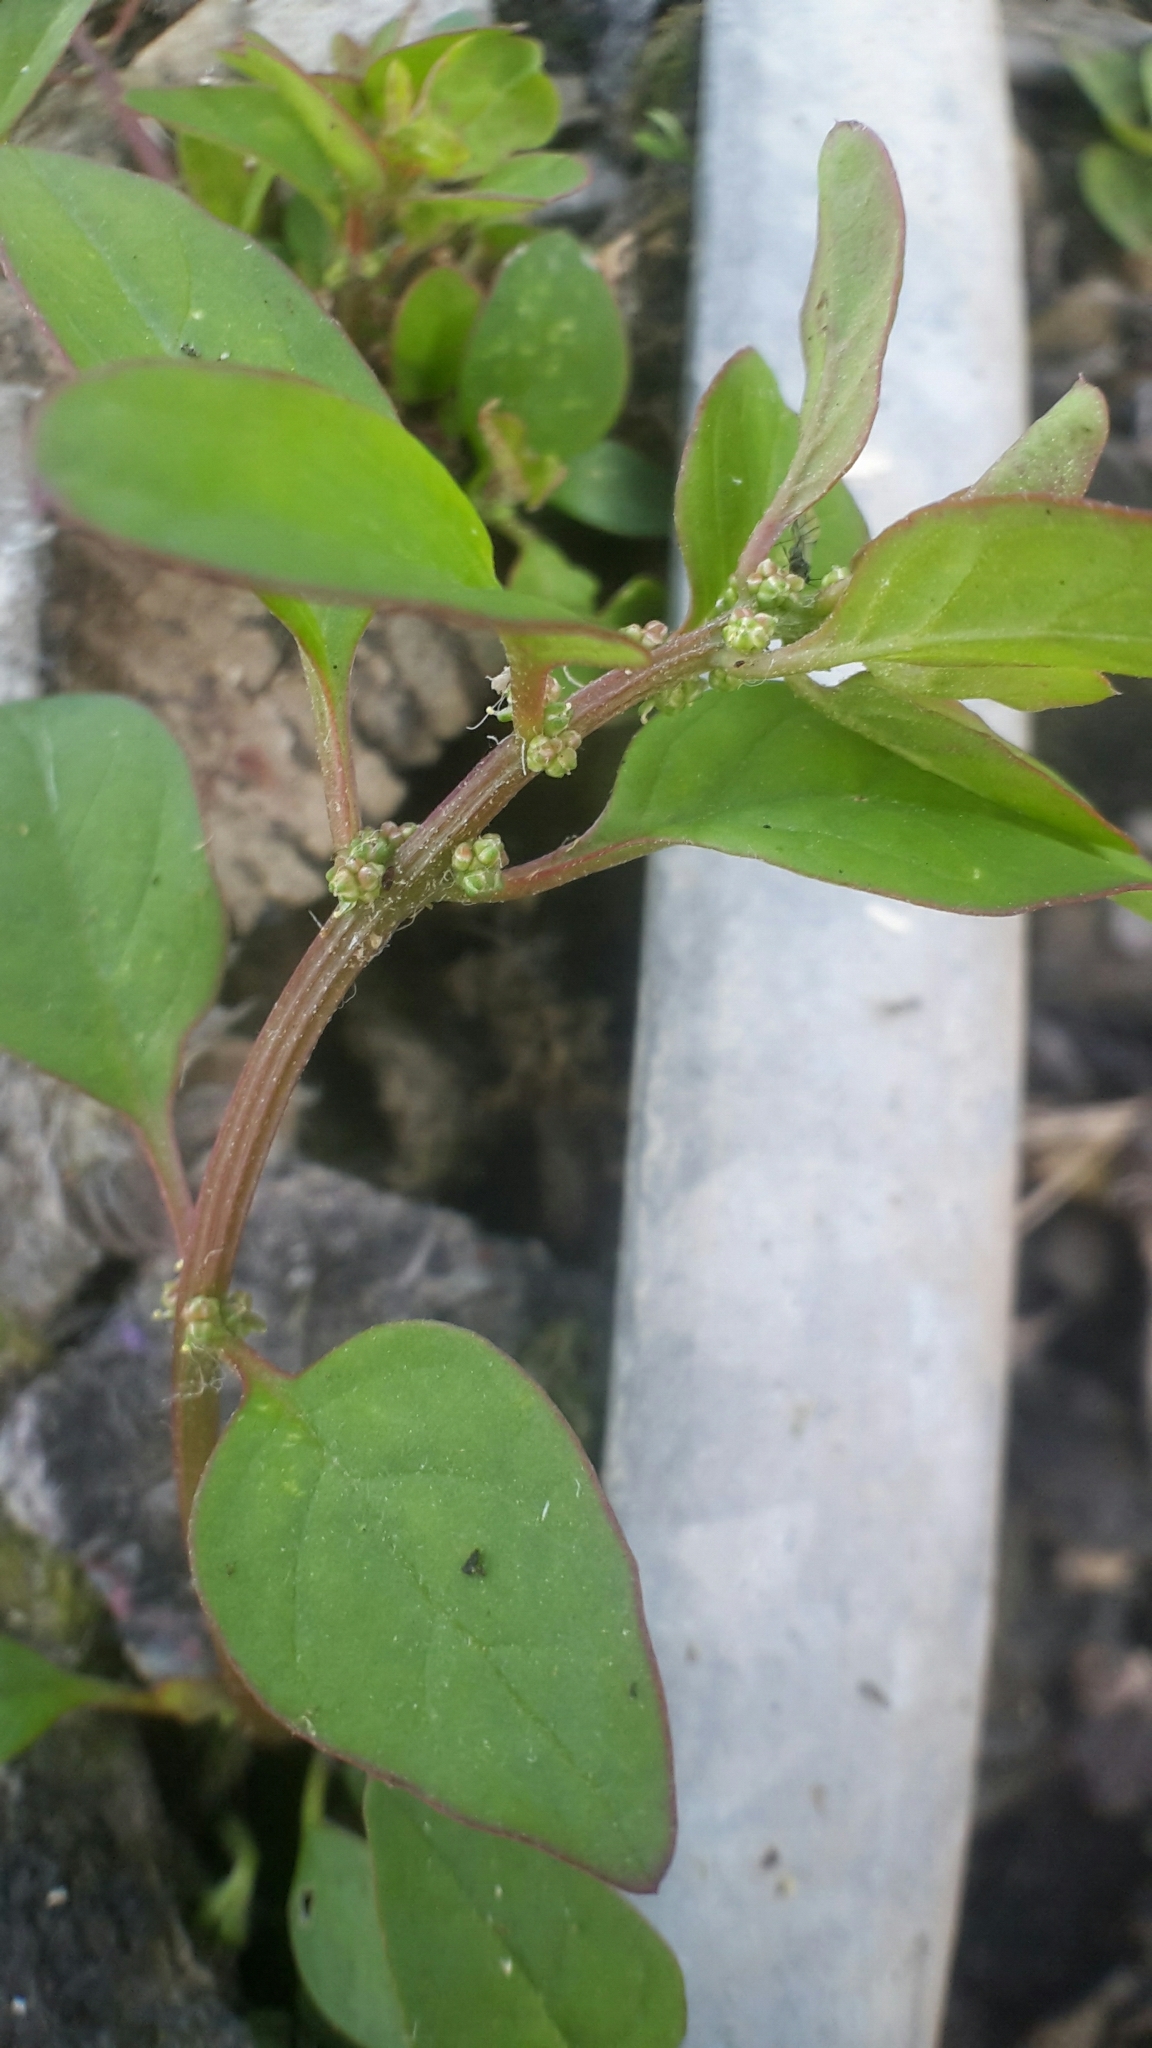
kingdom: Plantae
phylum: Tracheophyta
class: Magnoliopsida
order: Caryophyllales
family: Amaranthaceae
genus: Lipandra
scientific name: Lipandra polysperma
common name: Many-seed goosefoot
